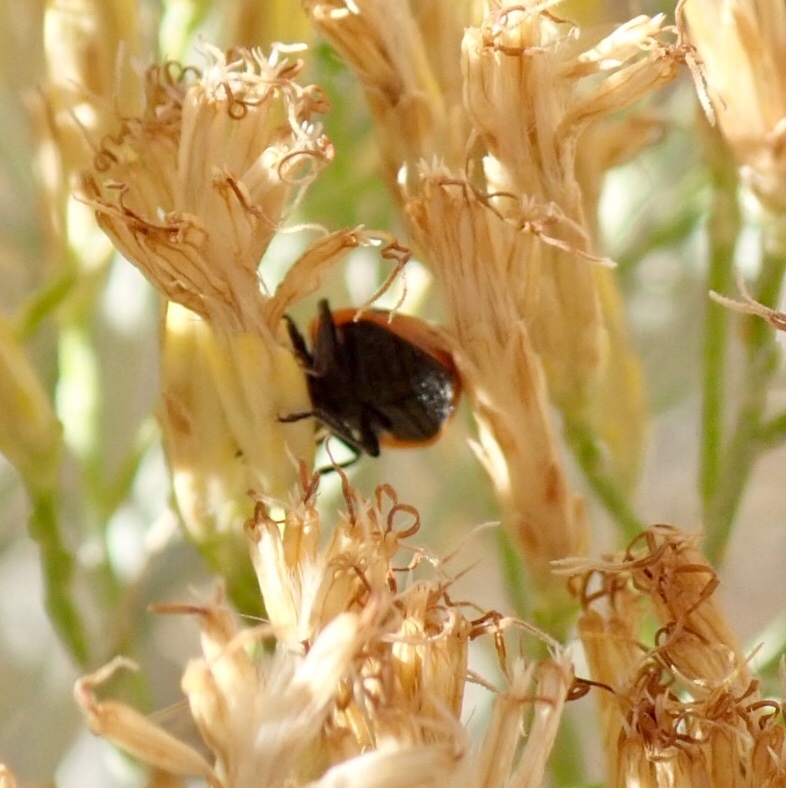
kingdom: Animalia
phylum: Arthropoda
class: Insecta
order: Coleoptera
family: Coccinellidae
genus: Hippodamia
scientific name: Hippodamia convergens
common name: Convergent lady beetle
